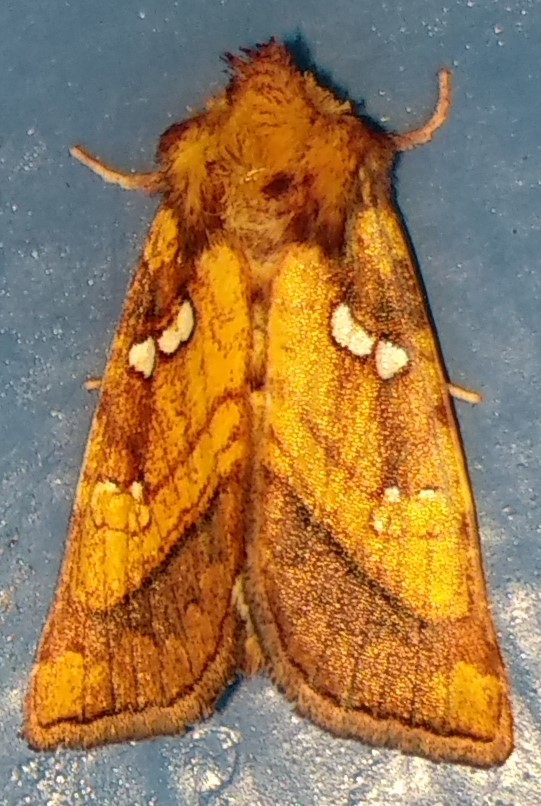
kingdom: Animalia
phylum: Arthropoda
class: Insecta
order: Lepidoptera
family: Noctuidae
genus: Papaipema
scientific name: Papaipema pterisii
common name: Bracken borer moth
